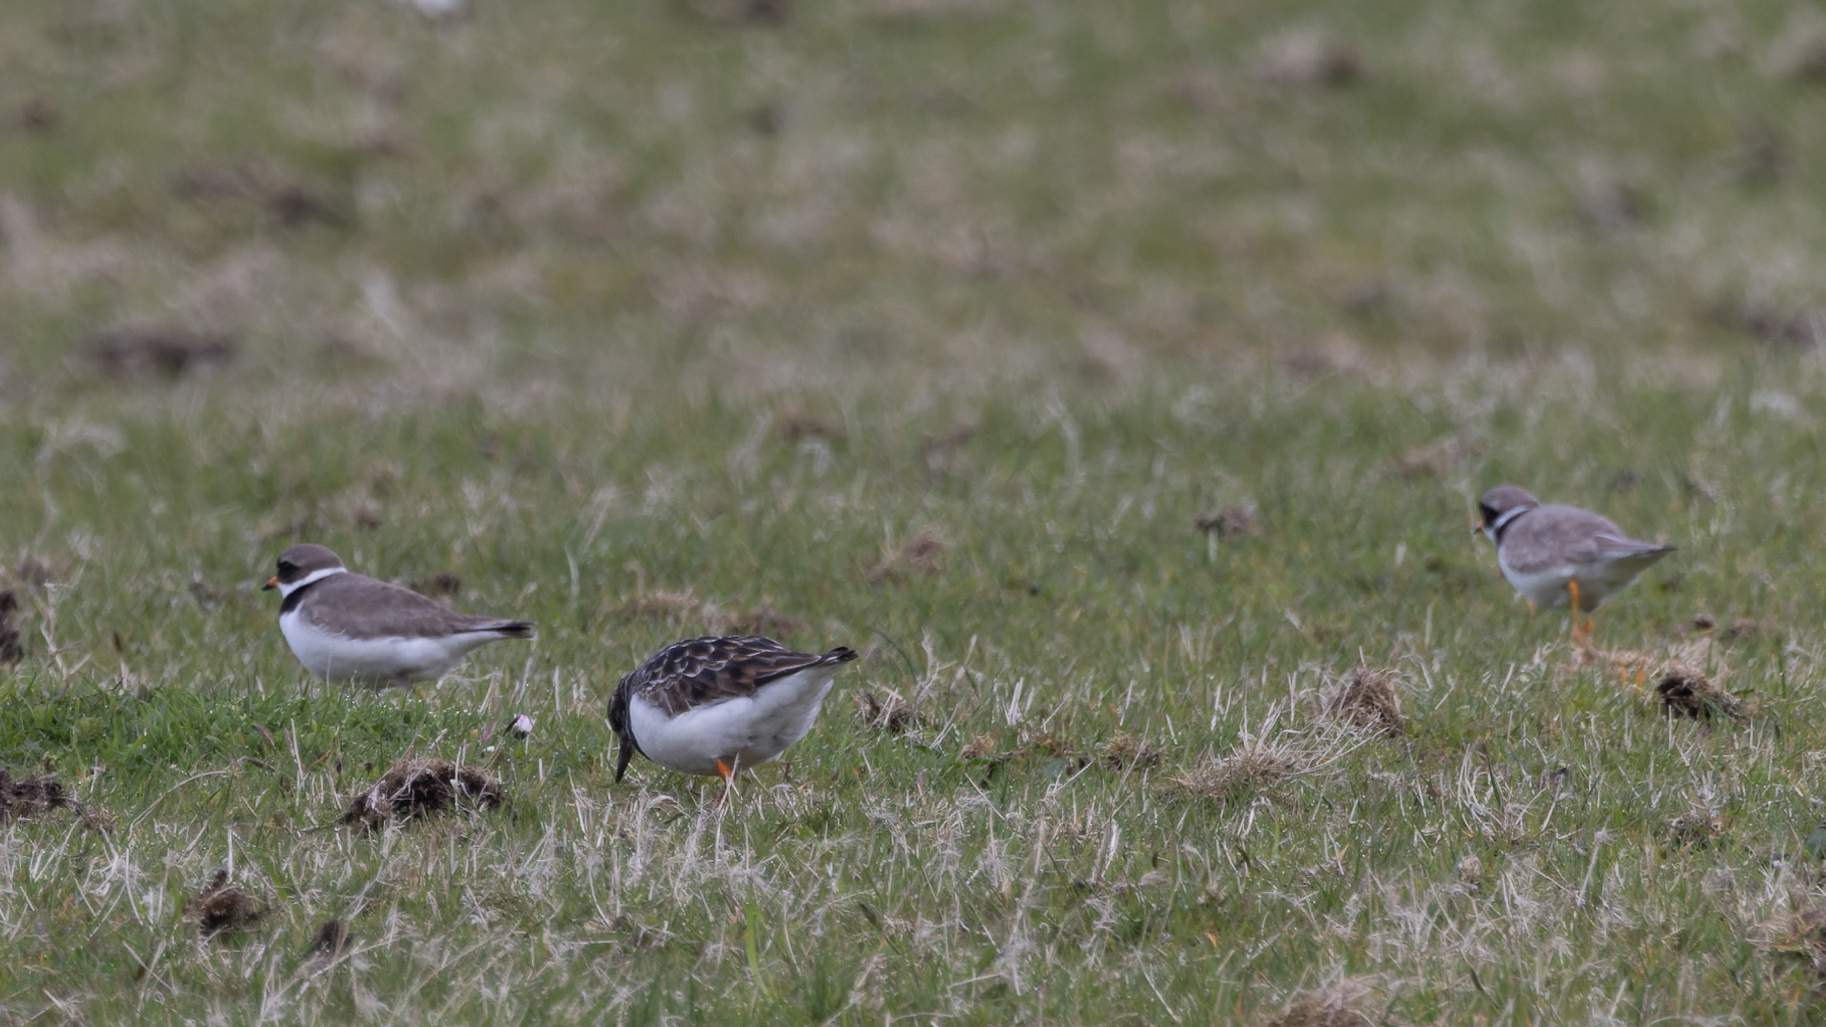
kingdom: Animalia
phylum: Chordata
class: Aves
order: Charadriiformes
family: Charadriidae
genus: Charadrius
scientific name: Charadrius hiaticula
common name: Common ringed plover
